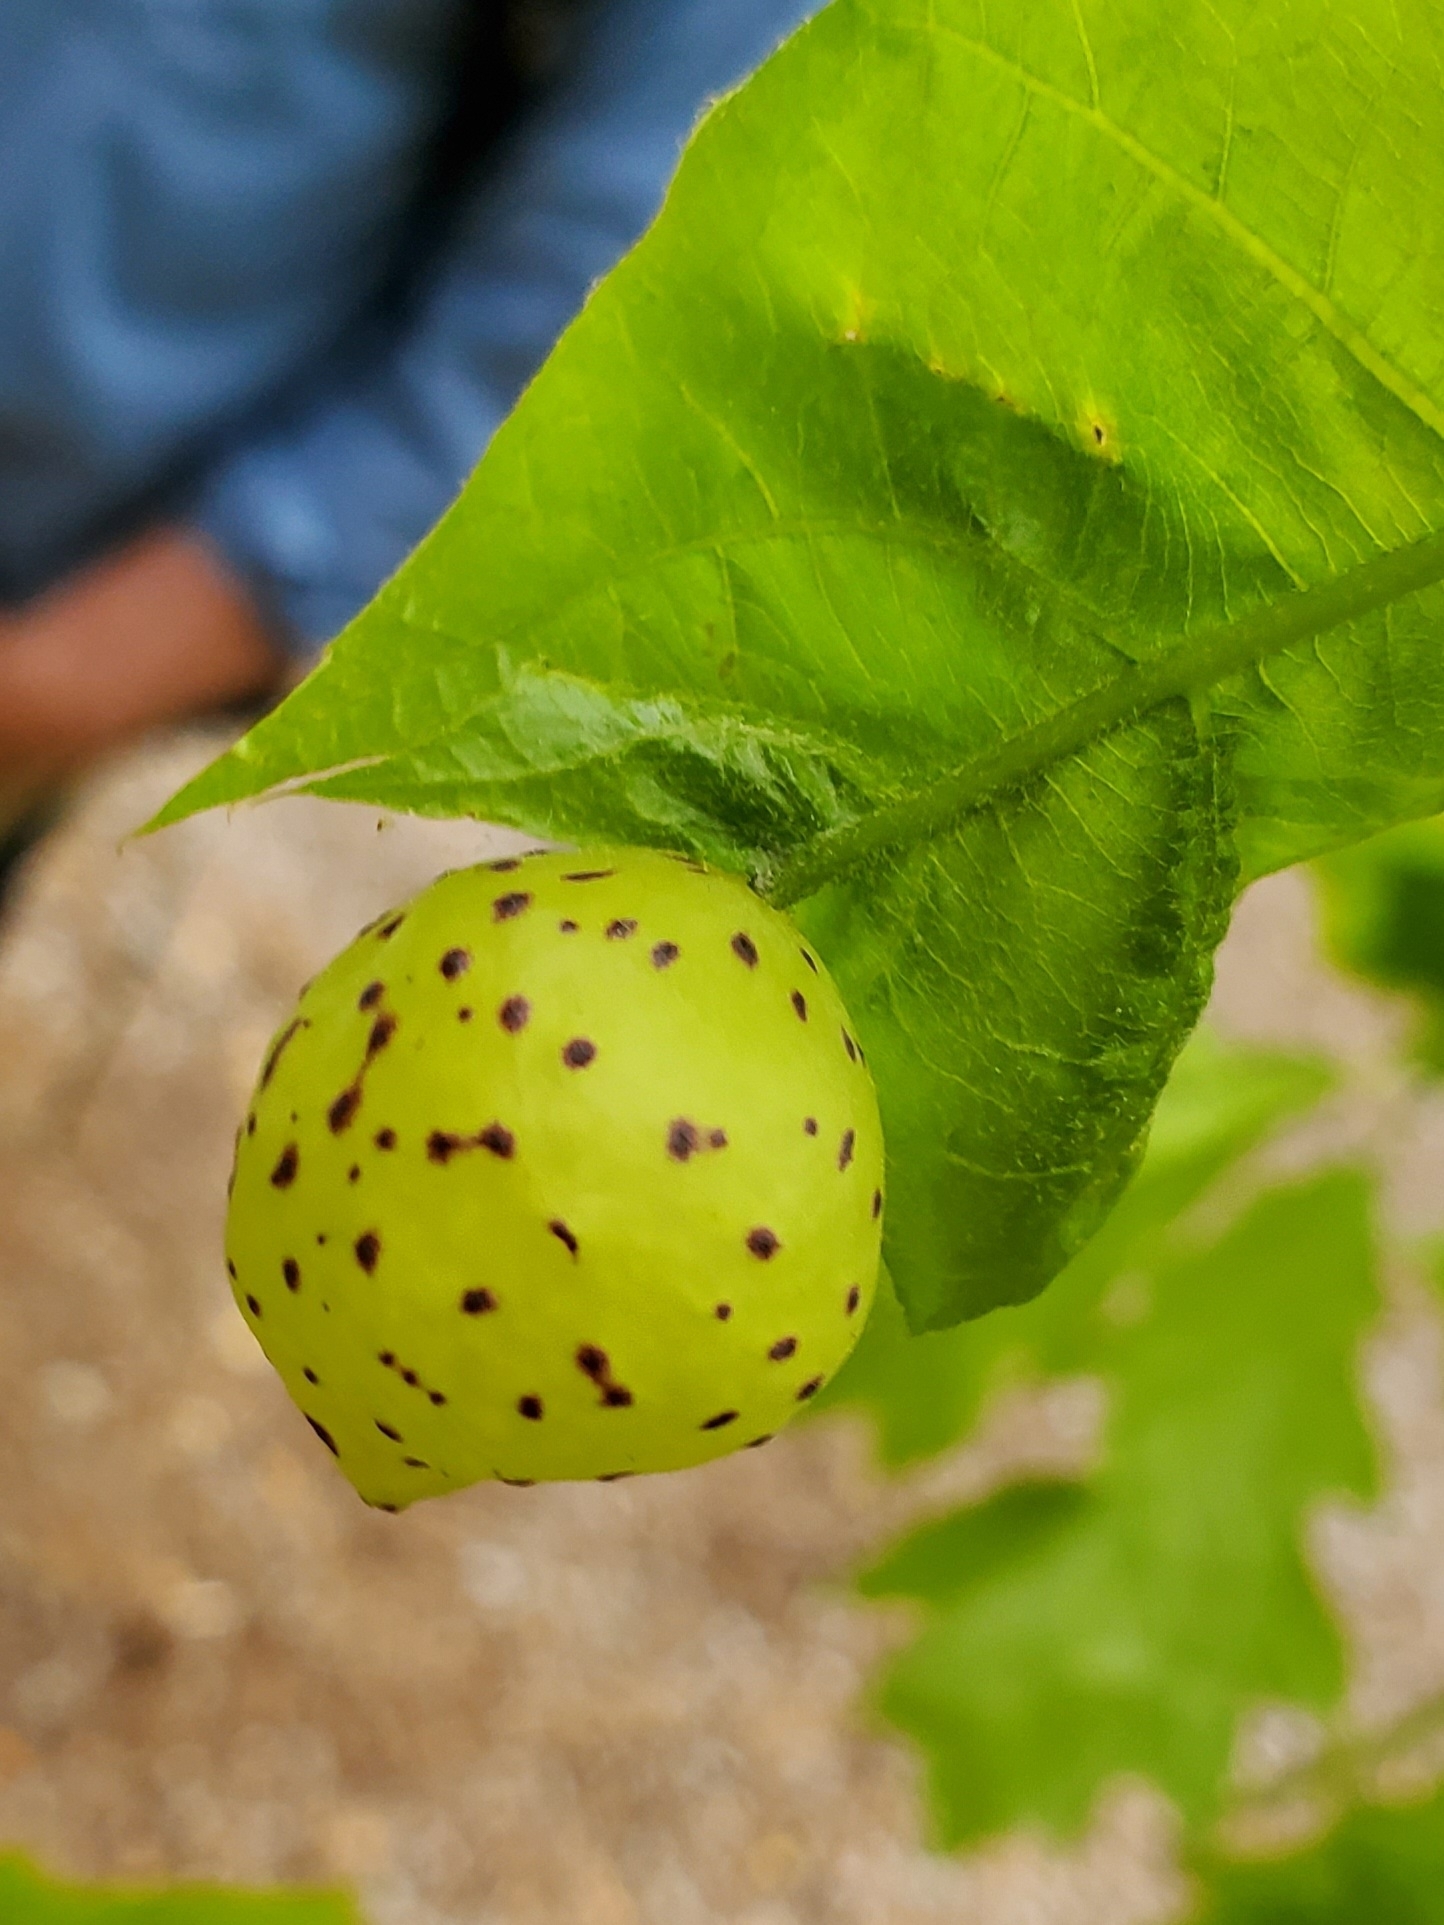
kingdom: Animalia
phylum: Arthropoda
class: Insecta
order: Hymenoptera
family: Cynipidae
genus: Amphibolips
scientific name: Amphibolips
